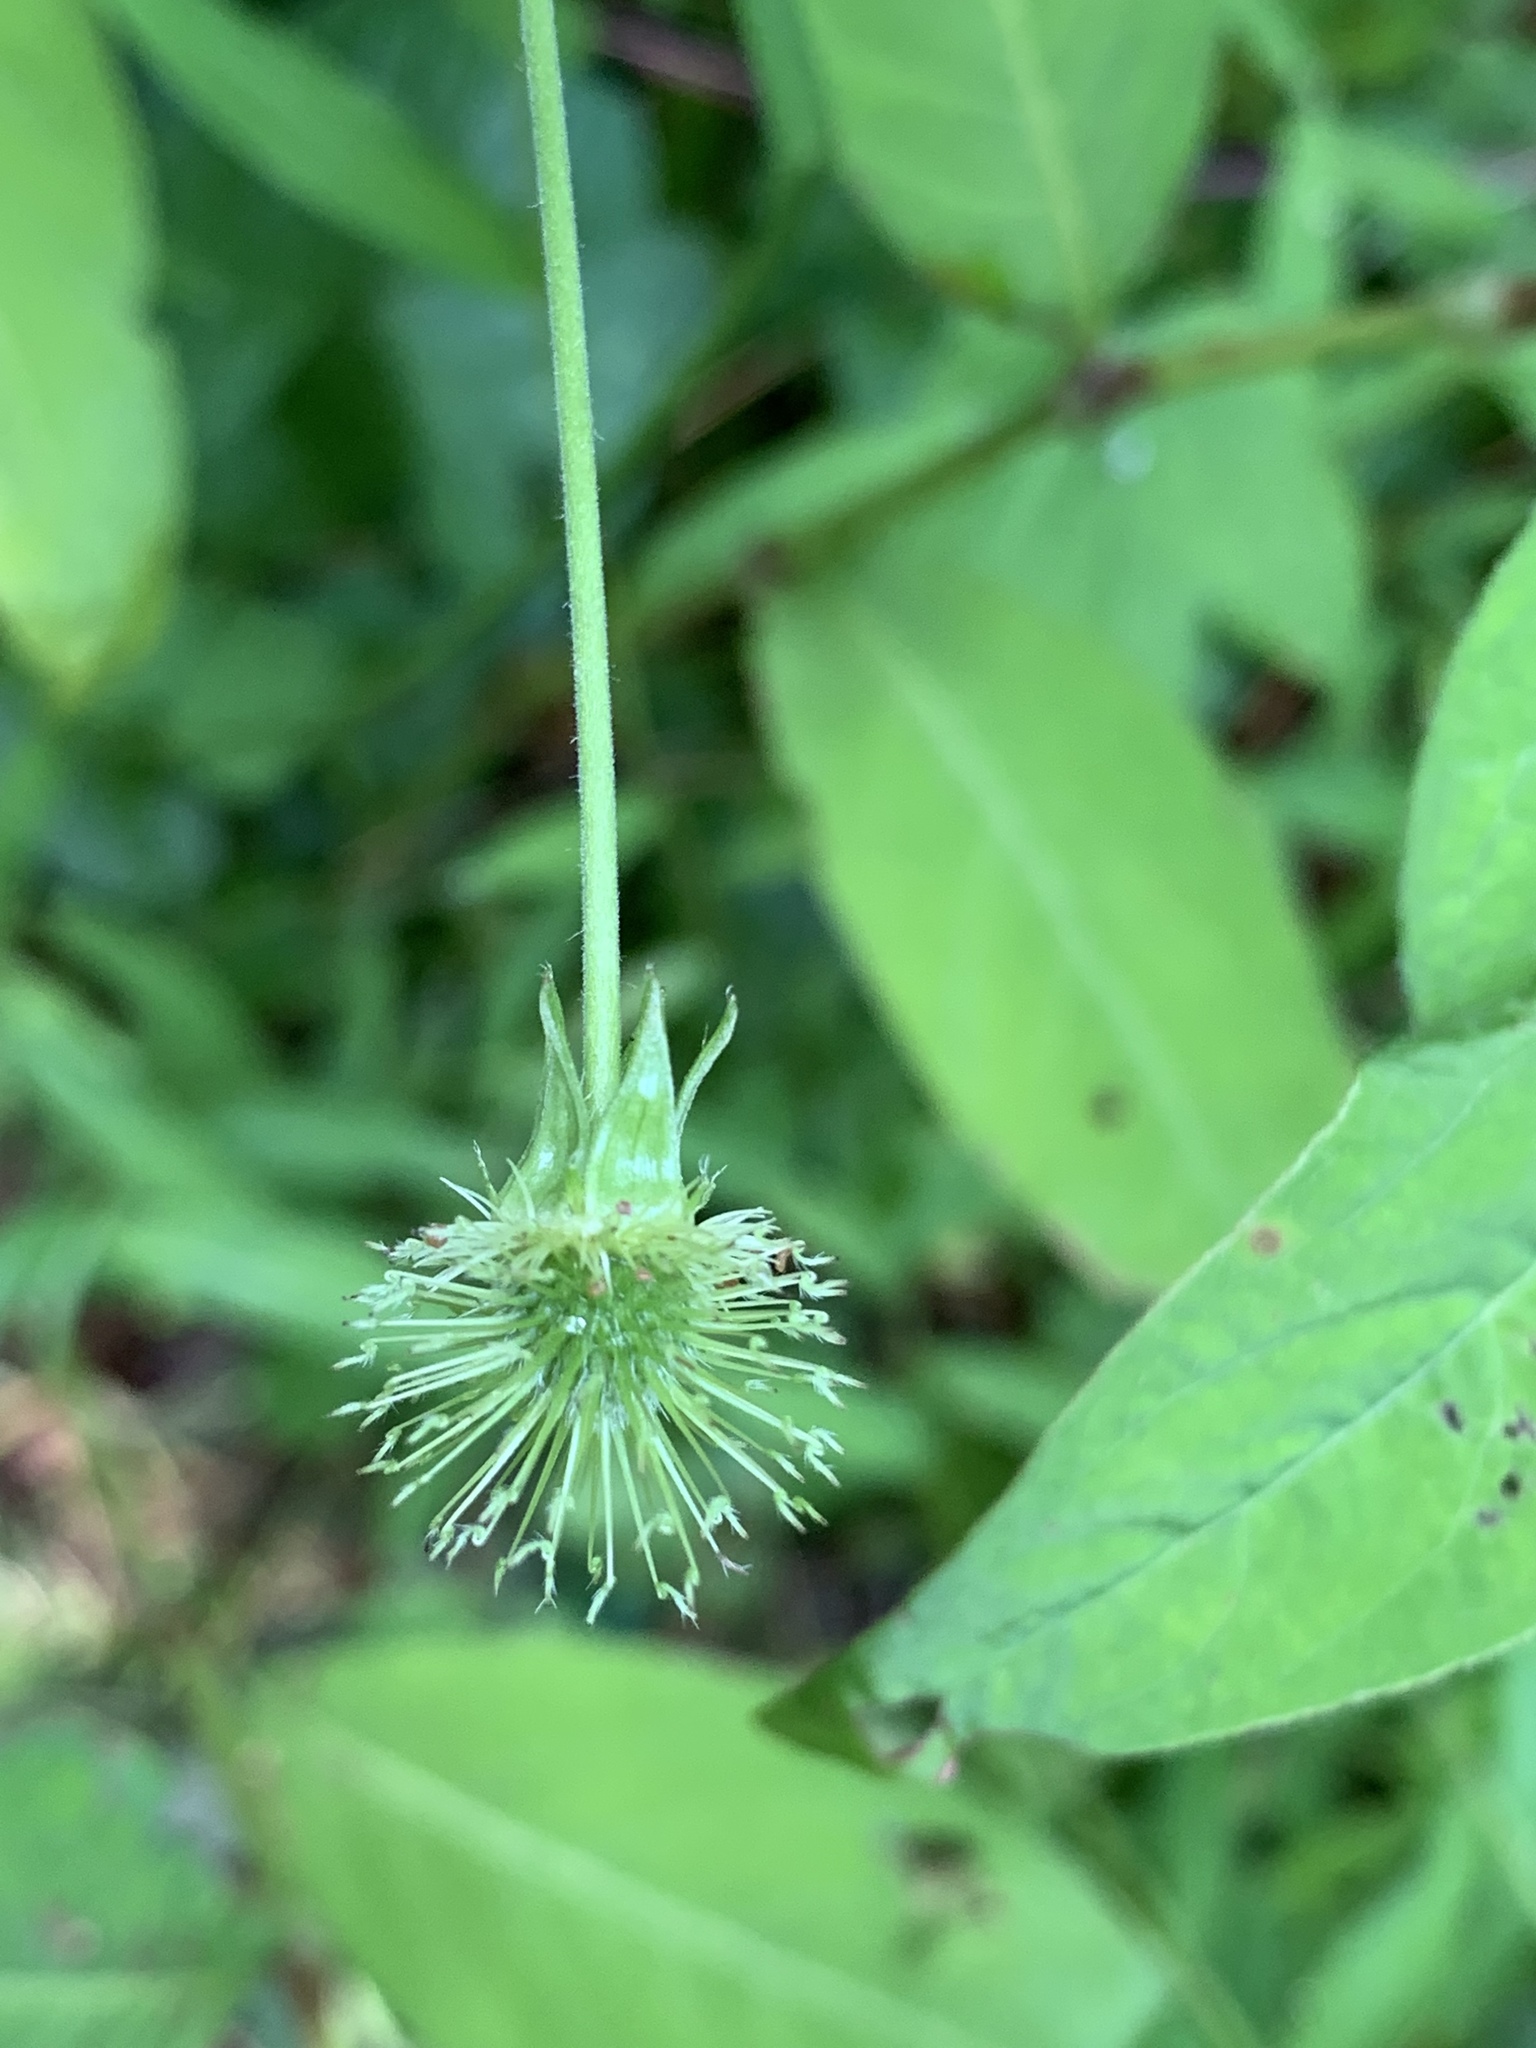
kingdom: Plantae
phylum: Tracheophyta
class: Magnoliopsida
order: Rosales
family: Rosaceae
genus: Geum
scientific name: Geum canadense
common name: White avens
